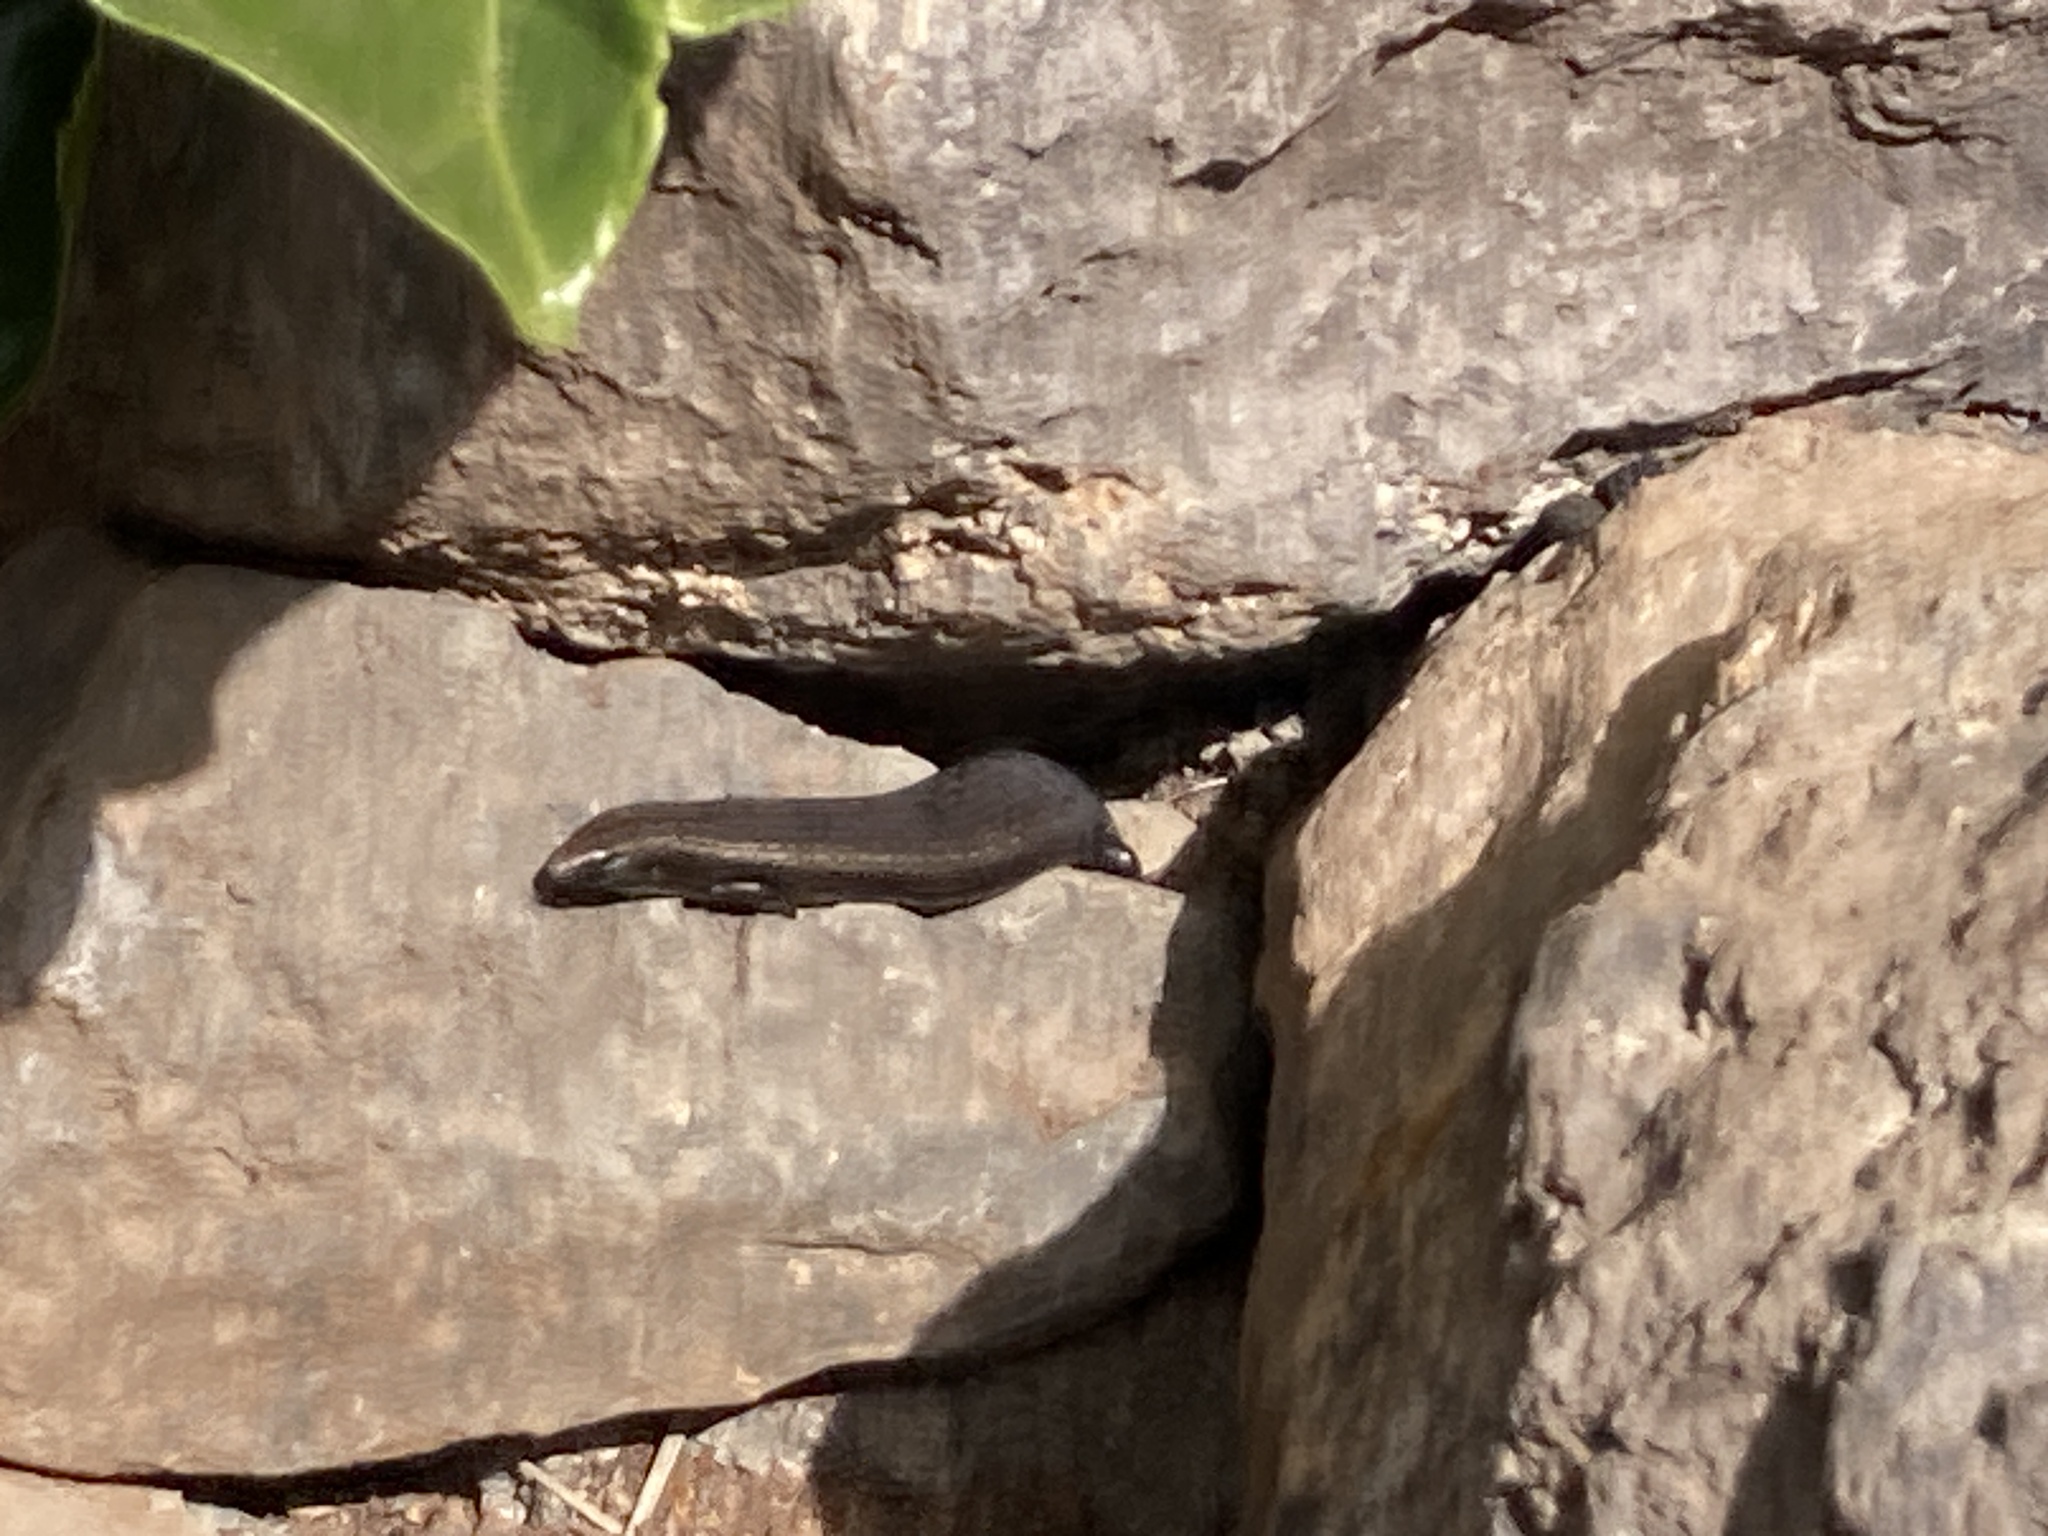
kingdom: Animalia
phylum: Chordata
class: Squamata
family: Scincidae
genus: Chalcides
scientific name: Chalcides viridanus
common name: Canaryan cylindrical skink
